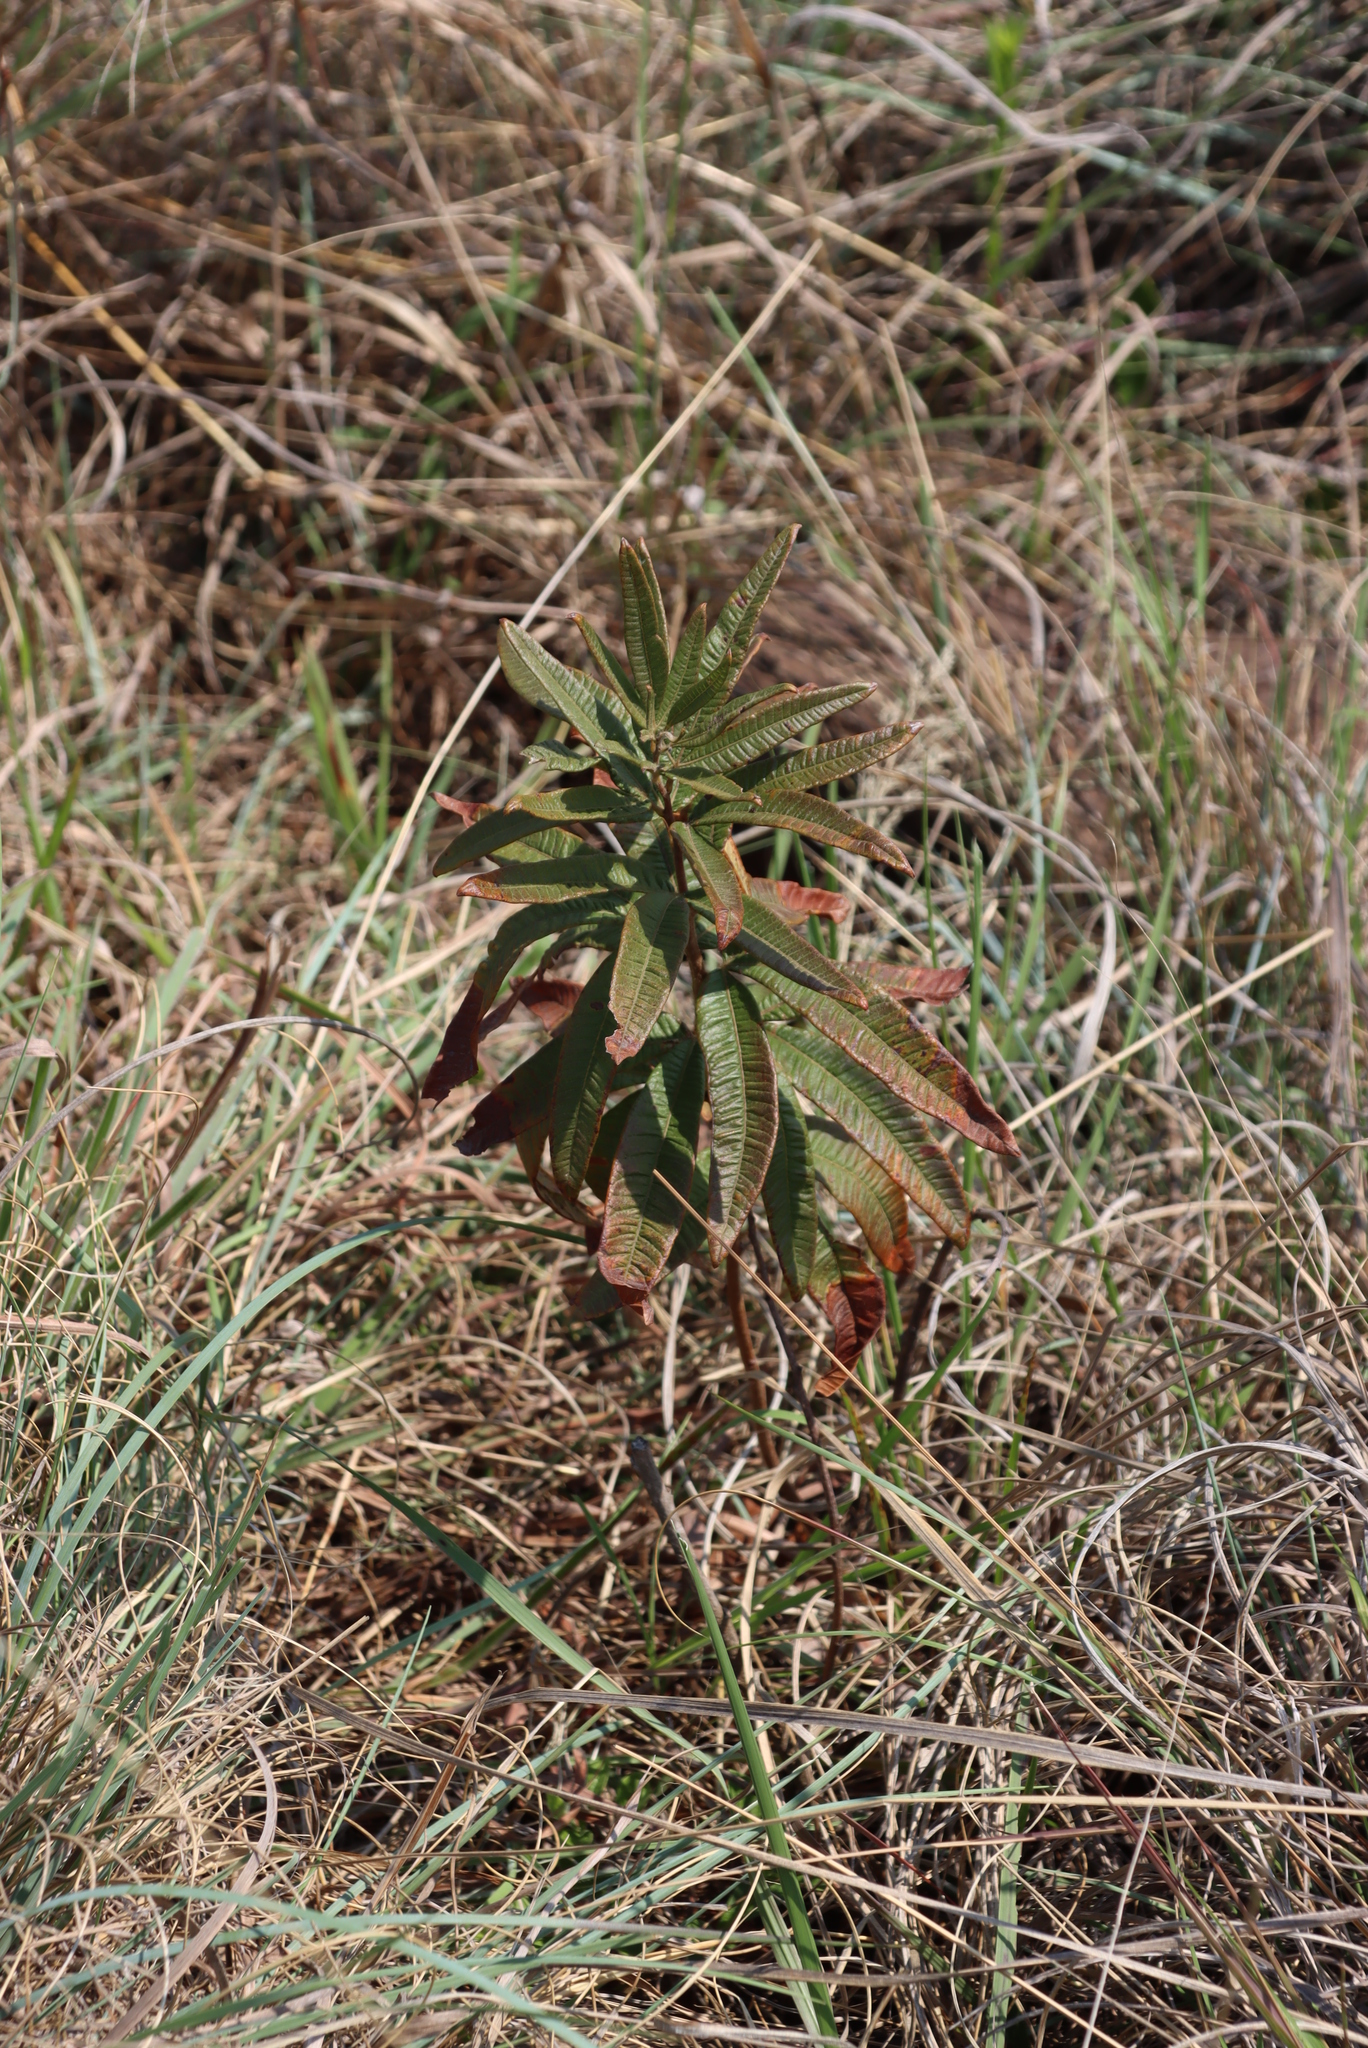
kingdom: Plantae
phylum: Tracheophyta
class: Magnoliopsida
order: Sapindales
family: Anacardiaceae
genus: Searsia
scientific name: Searsia discolor
